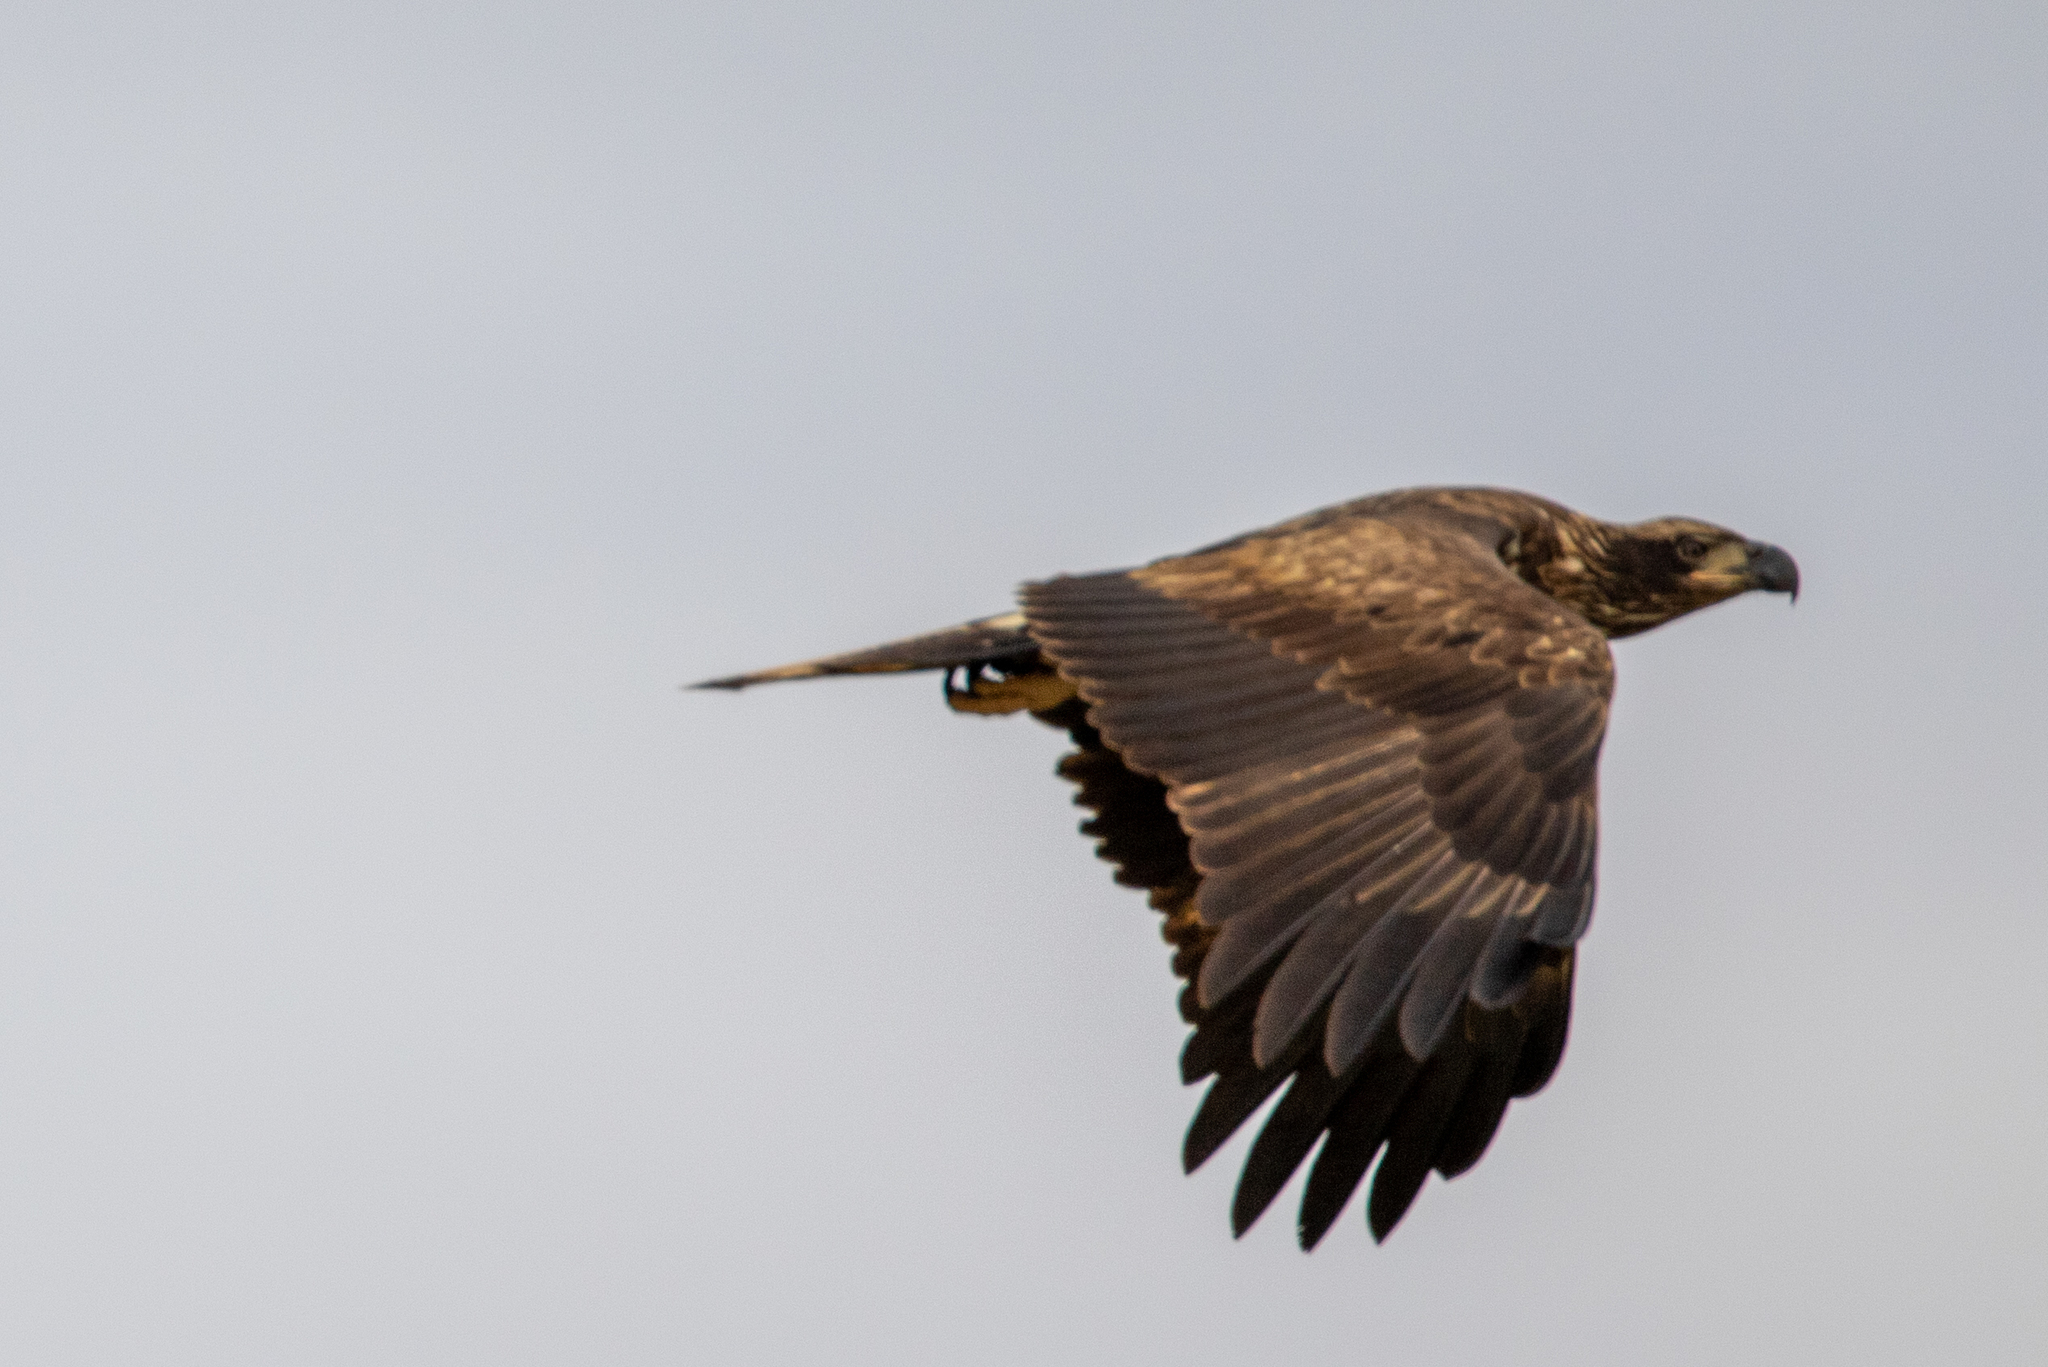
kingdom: Animalia
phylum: Chordata
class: Aves
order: Accipitriformes
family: Accipitridae
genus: Haliaeetus
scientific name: Haliaeetus leucocephalus
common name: Bald eagle
